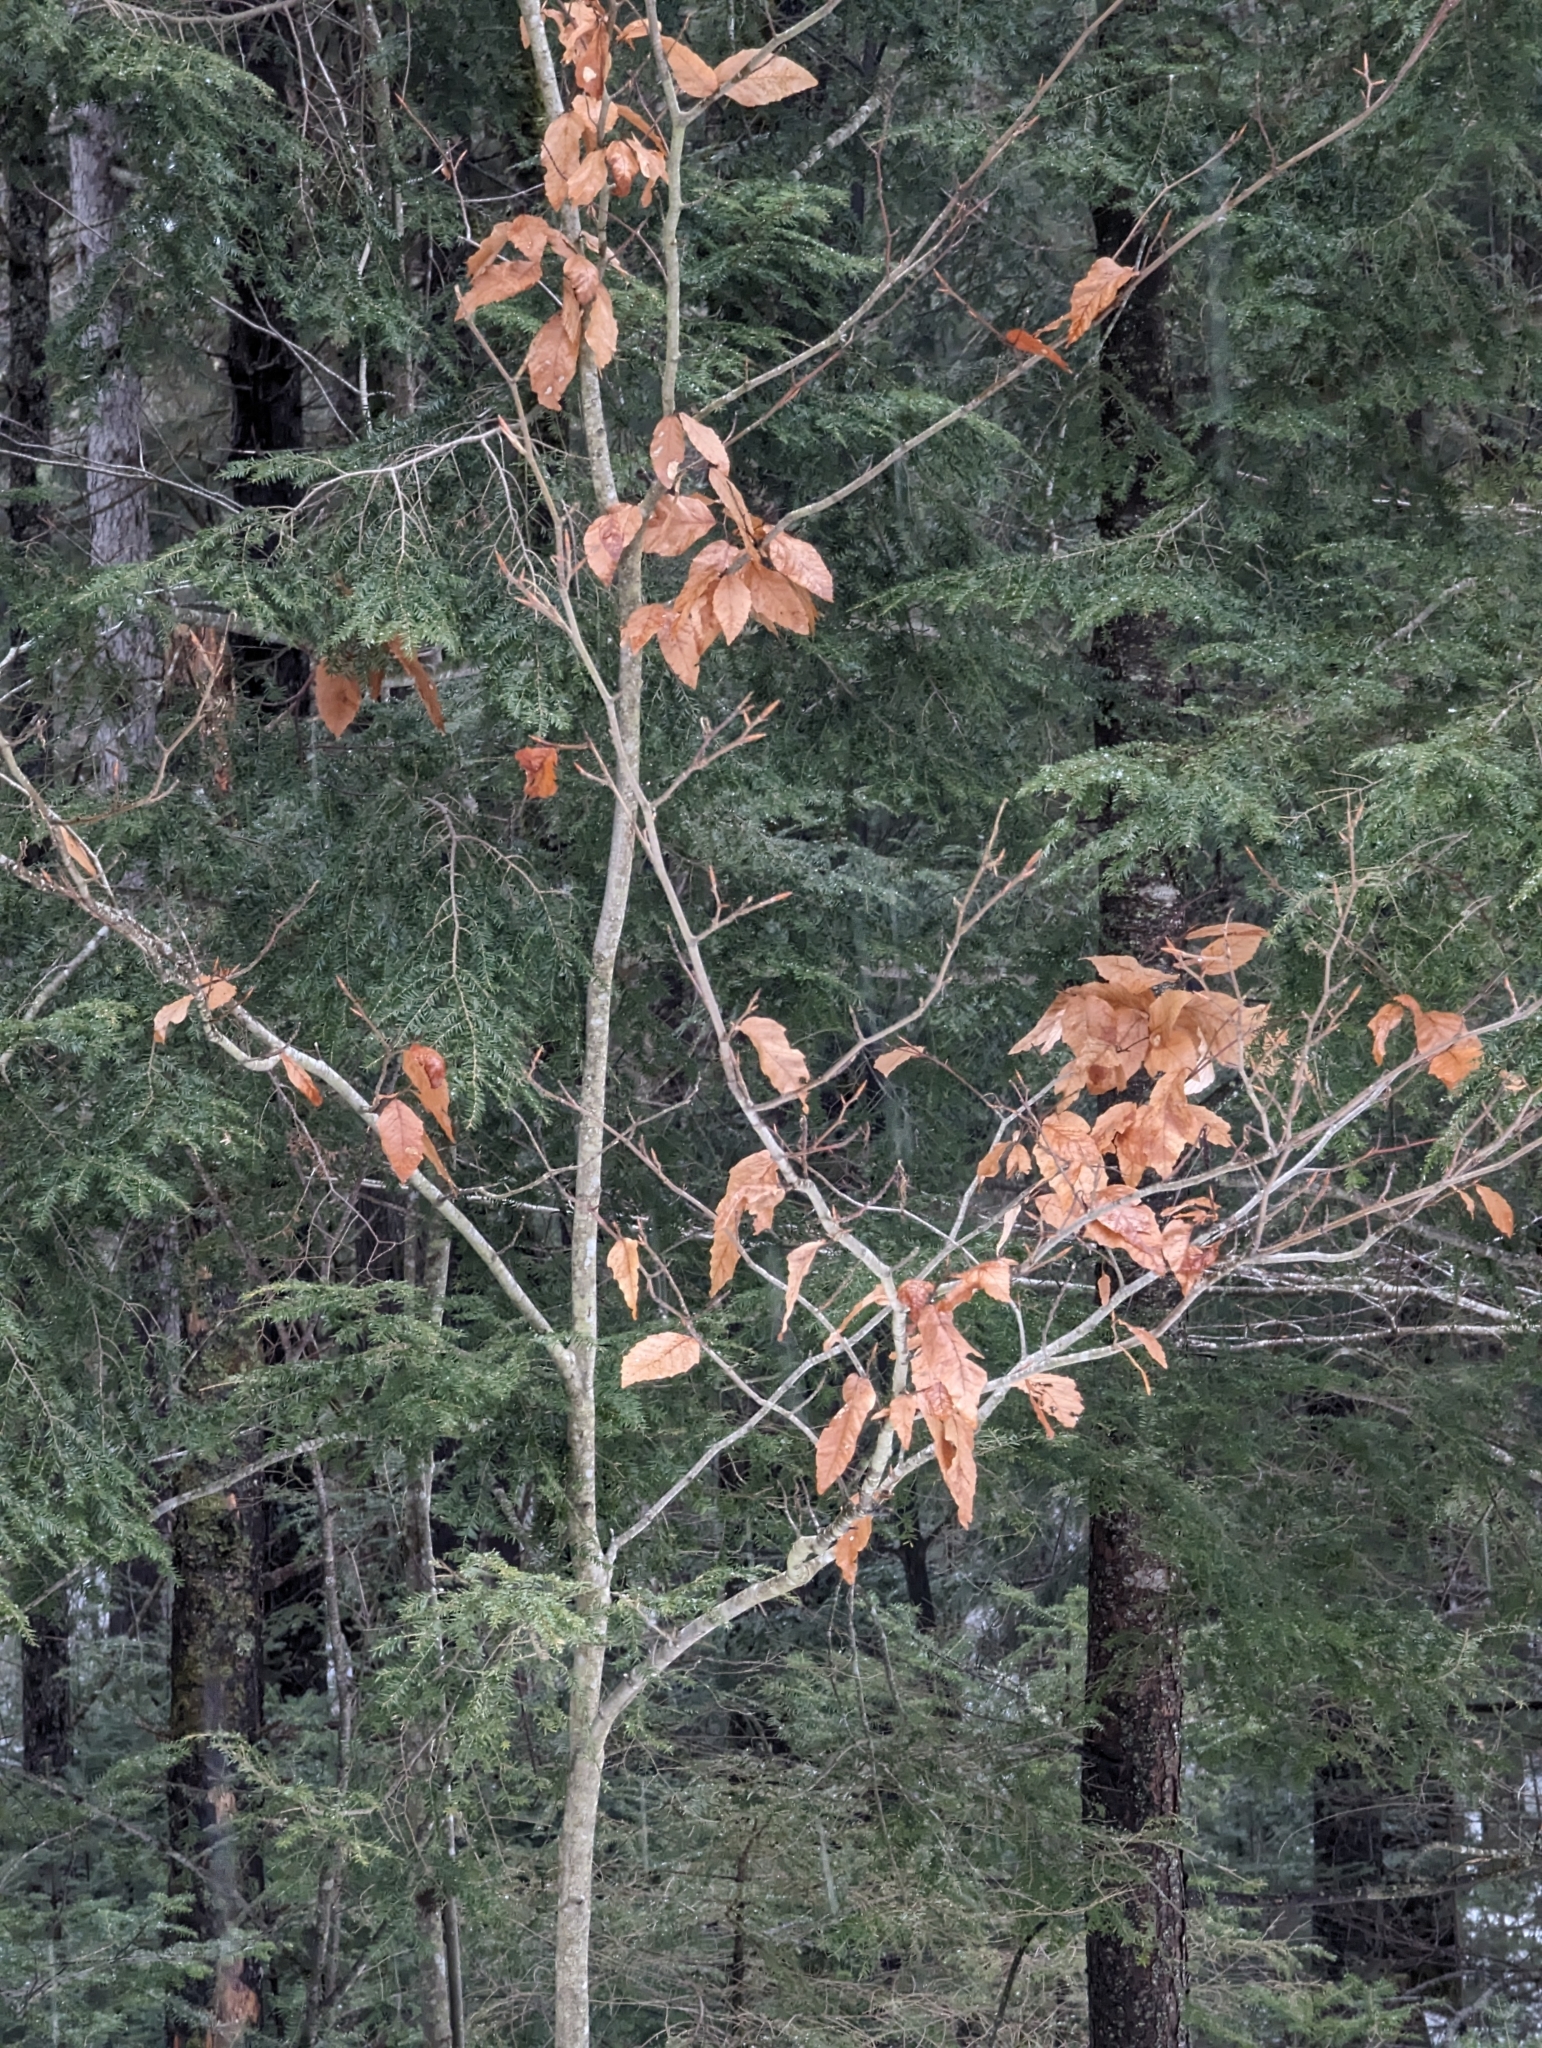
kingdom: Plantae
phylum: Tracheophyta
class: Magnoliopsida
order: Fagales
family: Fagaceae
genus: Fagus
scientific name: Fagus grandifolia
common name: American beech
